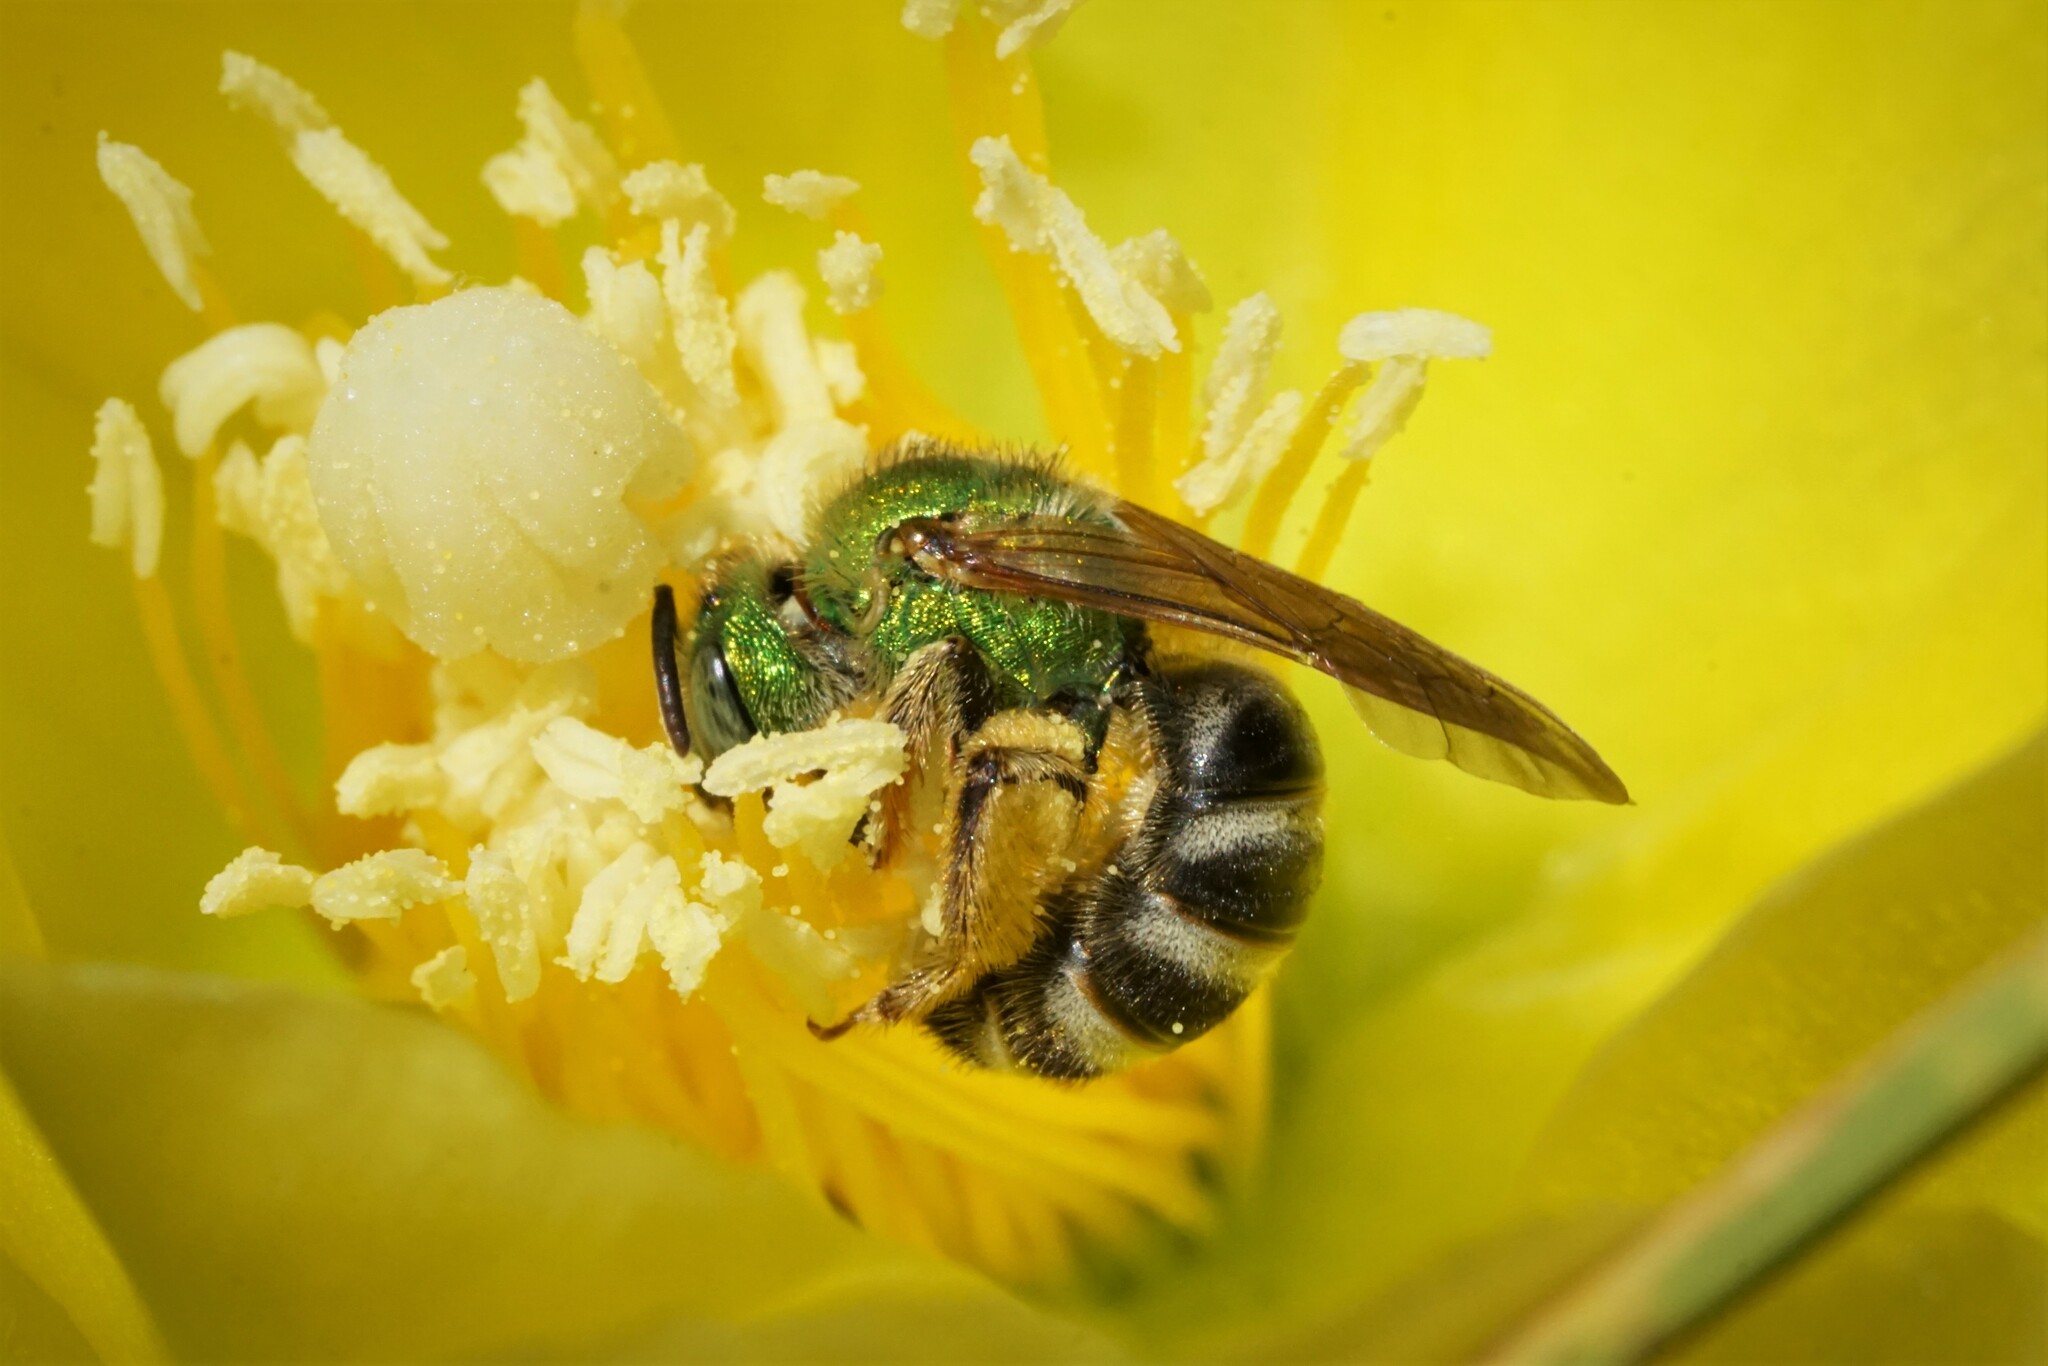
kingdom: Animalia
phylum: Arthropoda
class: Insecta
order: Hymenoptera
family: Halictidae
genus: Agapostemon
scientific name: Agapostemon virescens
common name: Bicolored striped sweat bee
